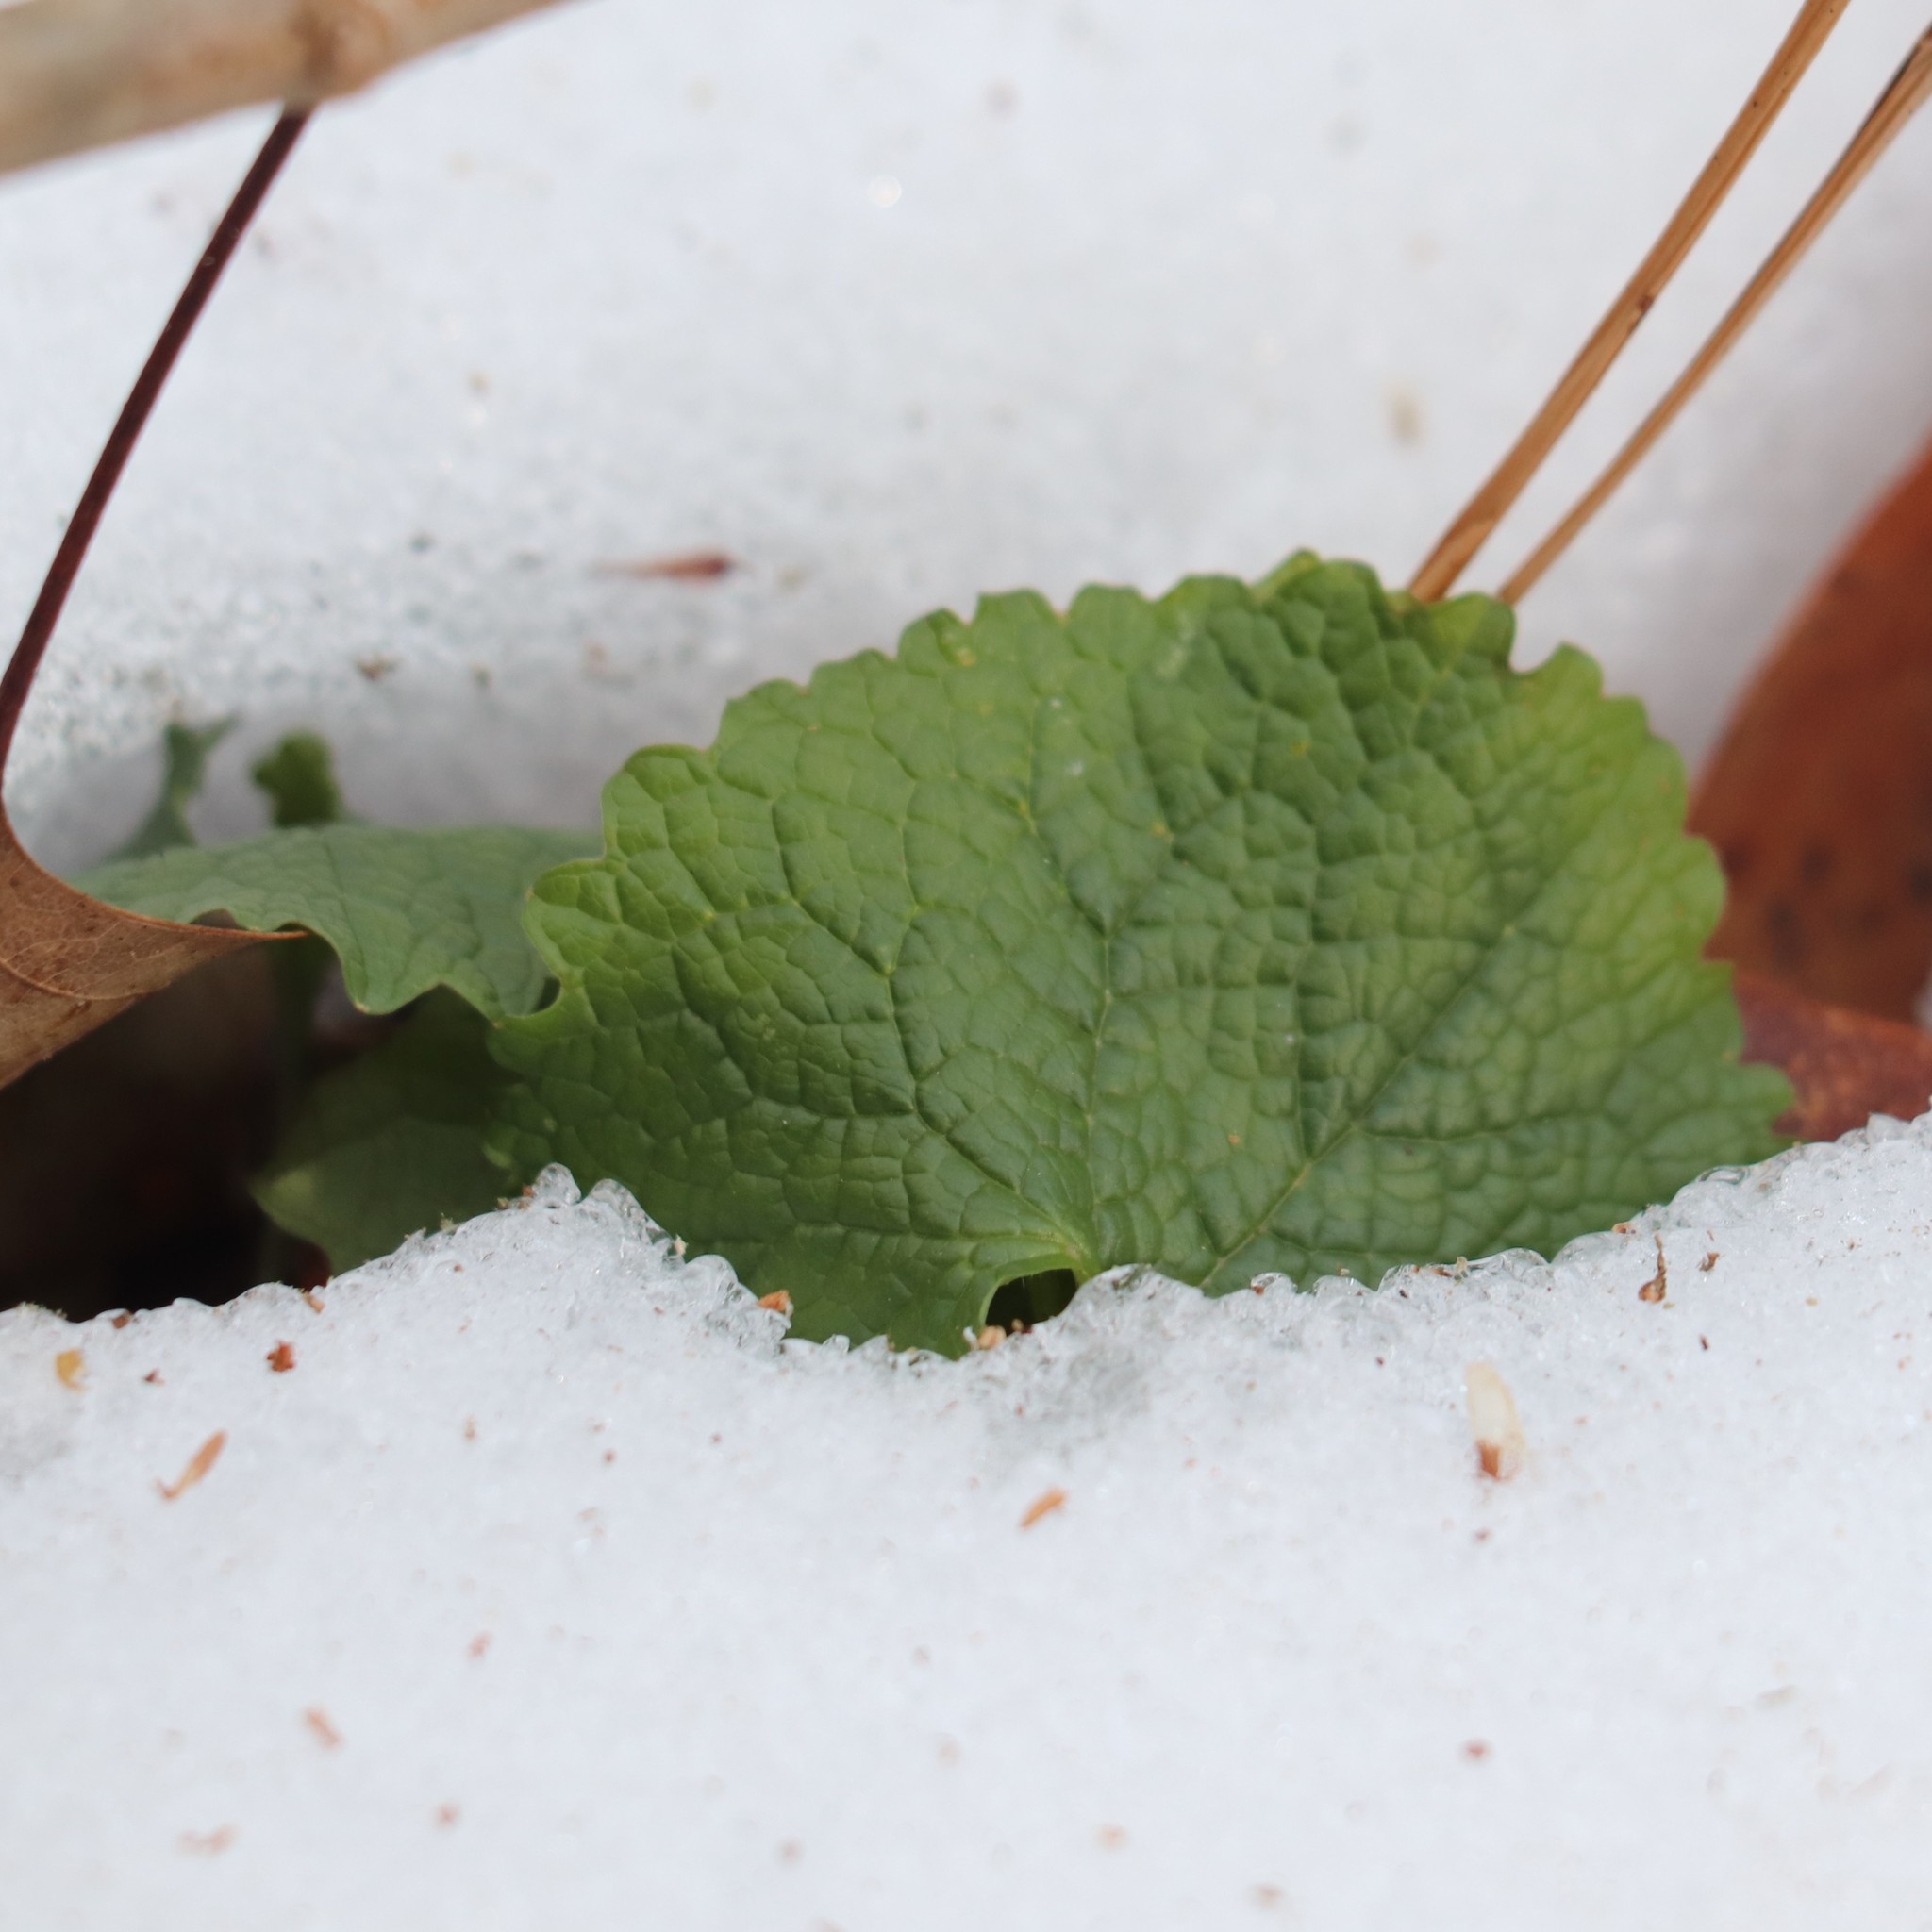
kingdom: Plantae
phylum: Tracheophyta
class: Magnoliopsida
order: Brassicales
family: Brassicaceae
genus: Alliaria
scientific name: Alliaria petiolata
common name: Garlic mustard
